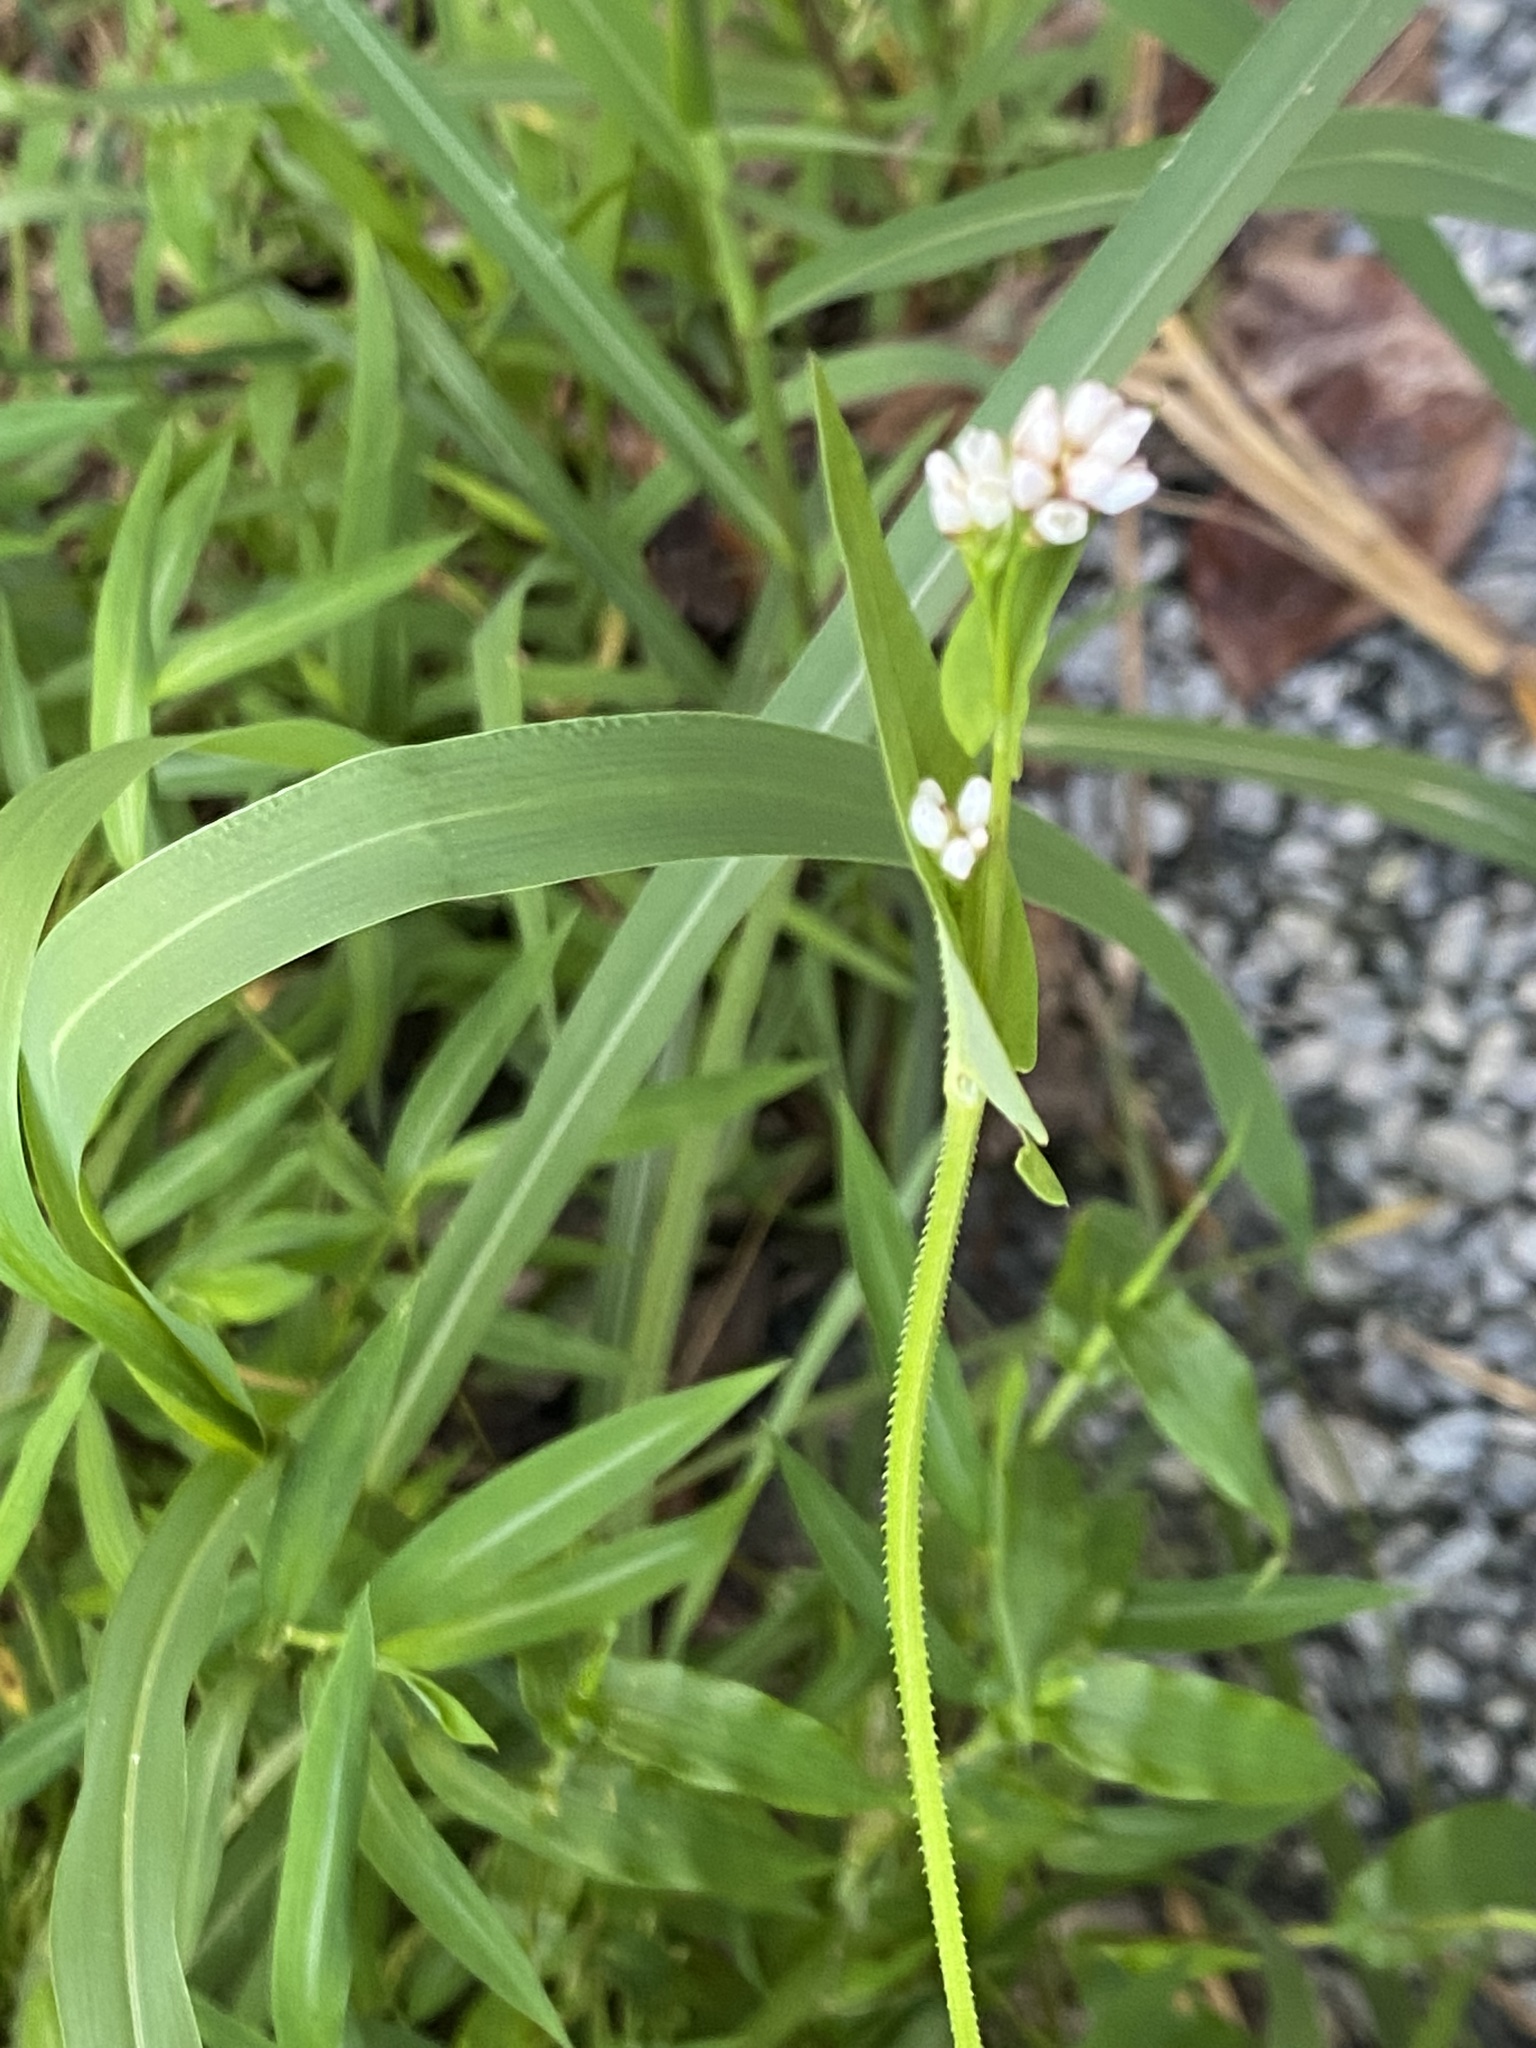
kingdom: Plantae
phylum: Tracheophyta
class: Magnoliopsida
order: Caryophyllales
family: Polygonaceae
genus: Persicaria
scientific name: Persicaria sagittata
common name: American tearthumb
